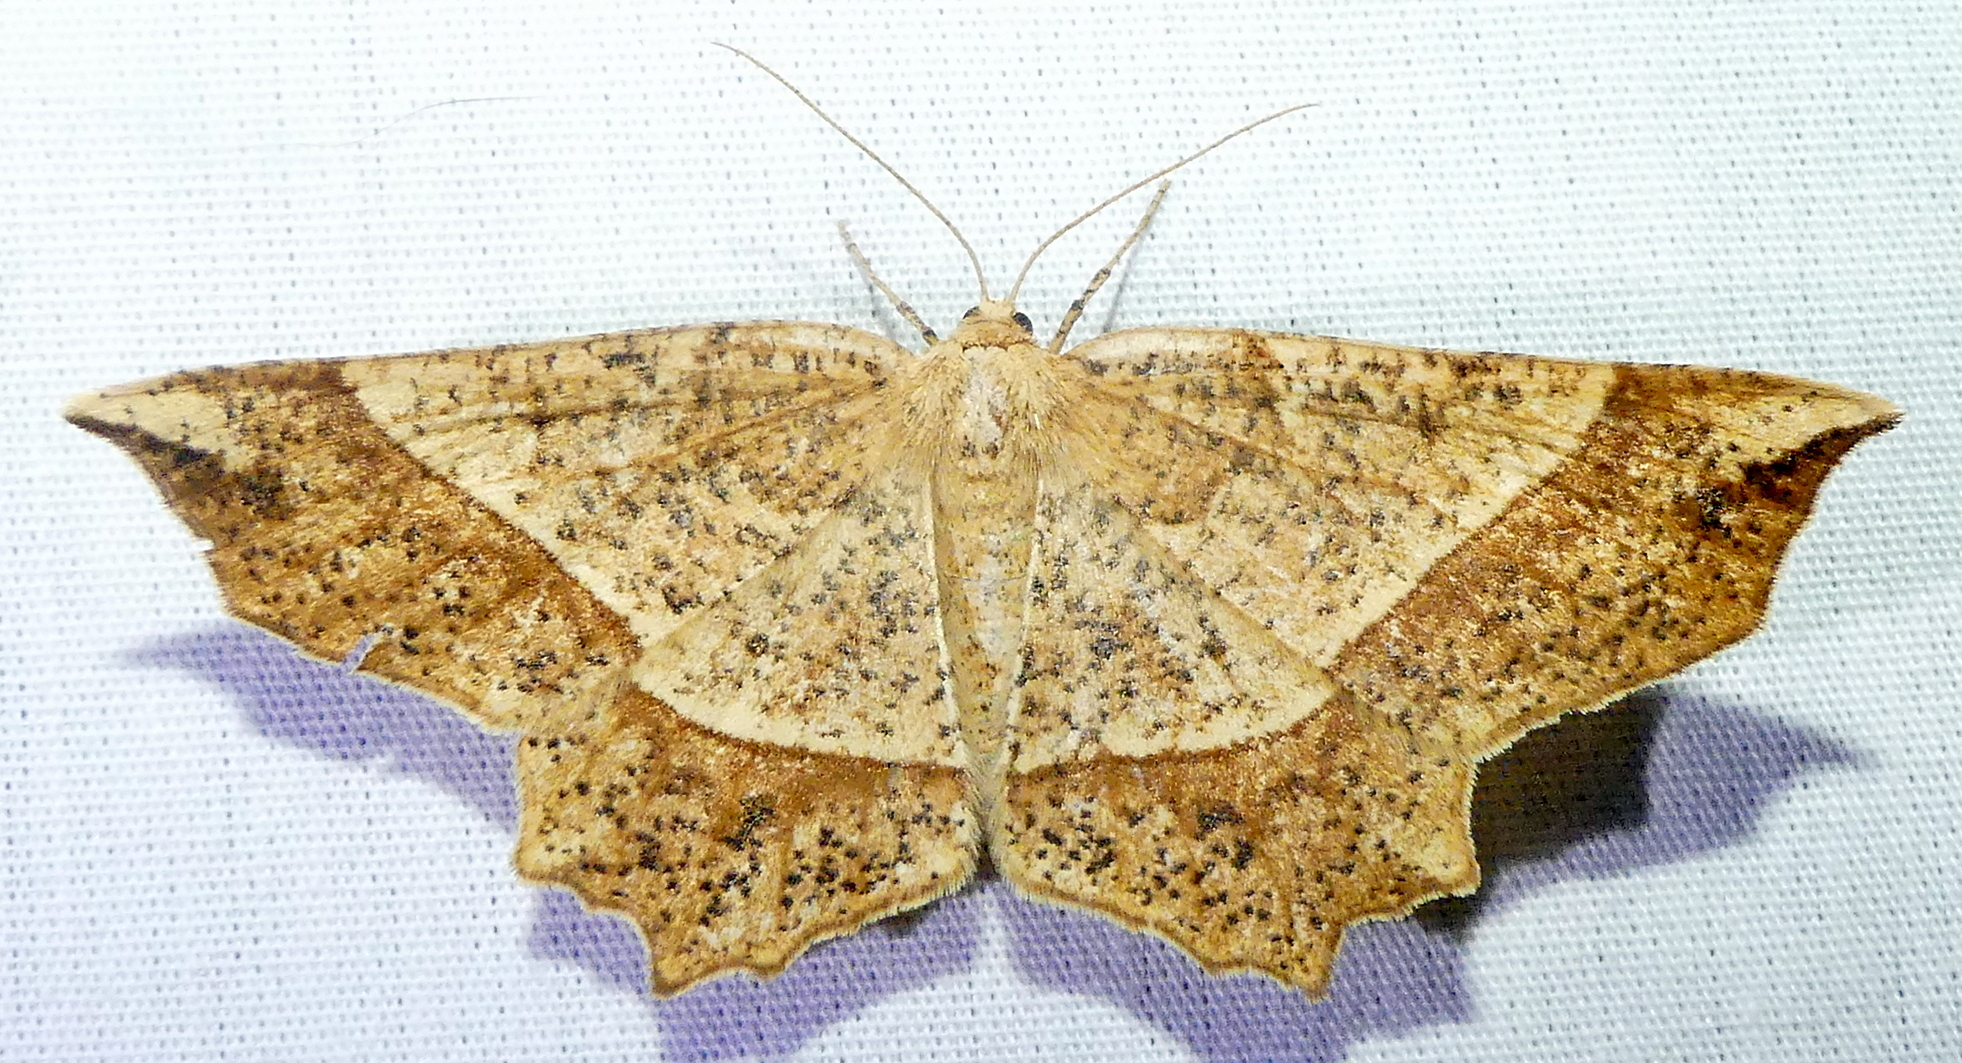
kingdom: Animalia
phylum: Arthropoda
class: Insecta
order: Lepidoptera
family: Geometridae
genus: Euchlaena
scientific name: Euchlaena tigrinaria
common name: Mottled euchlaena moth
